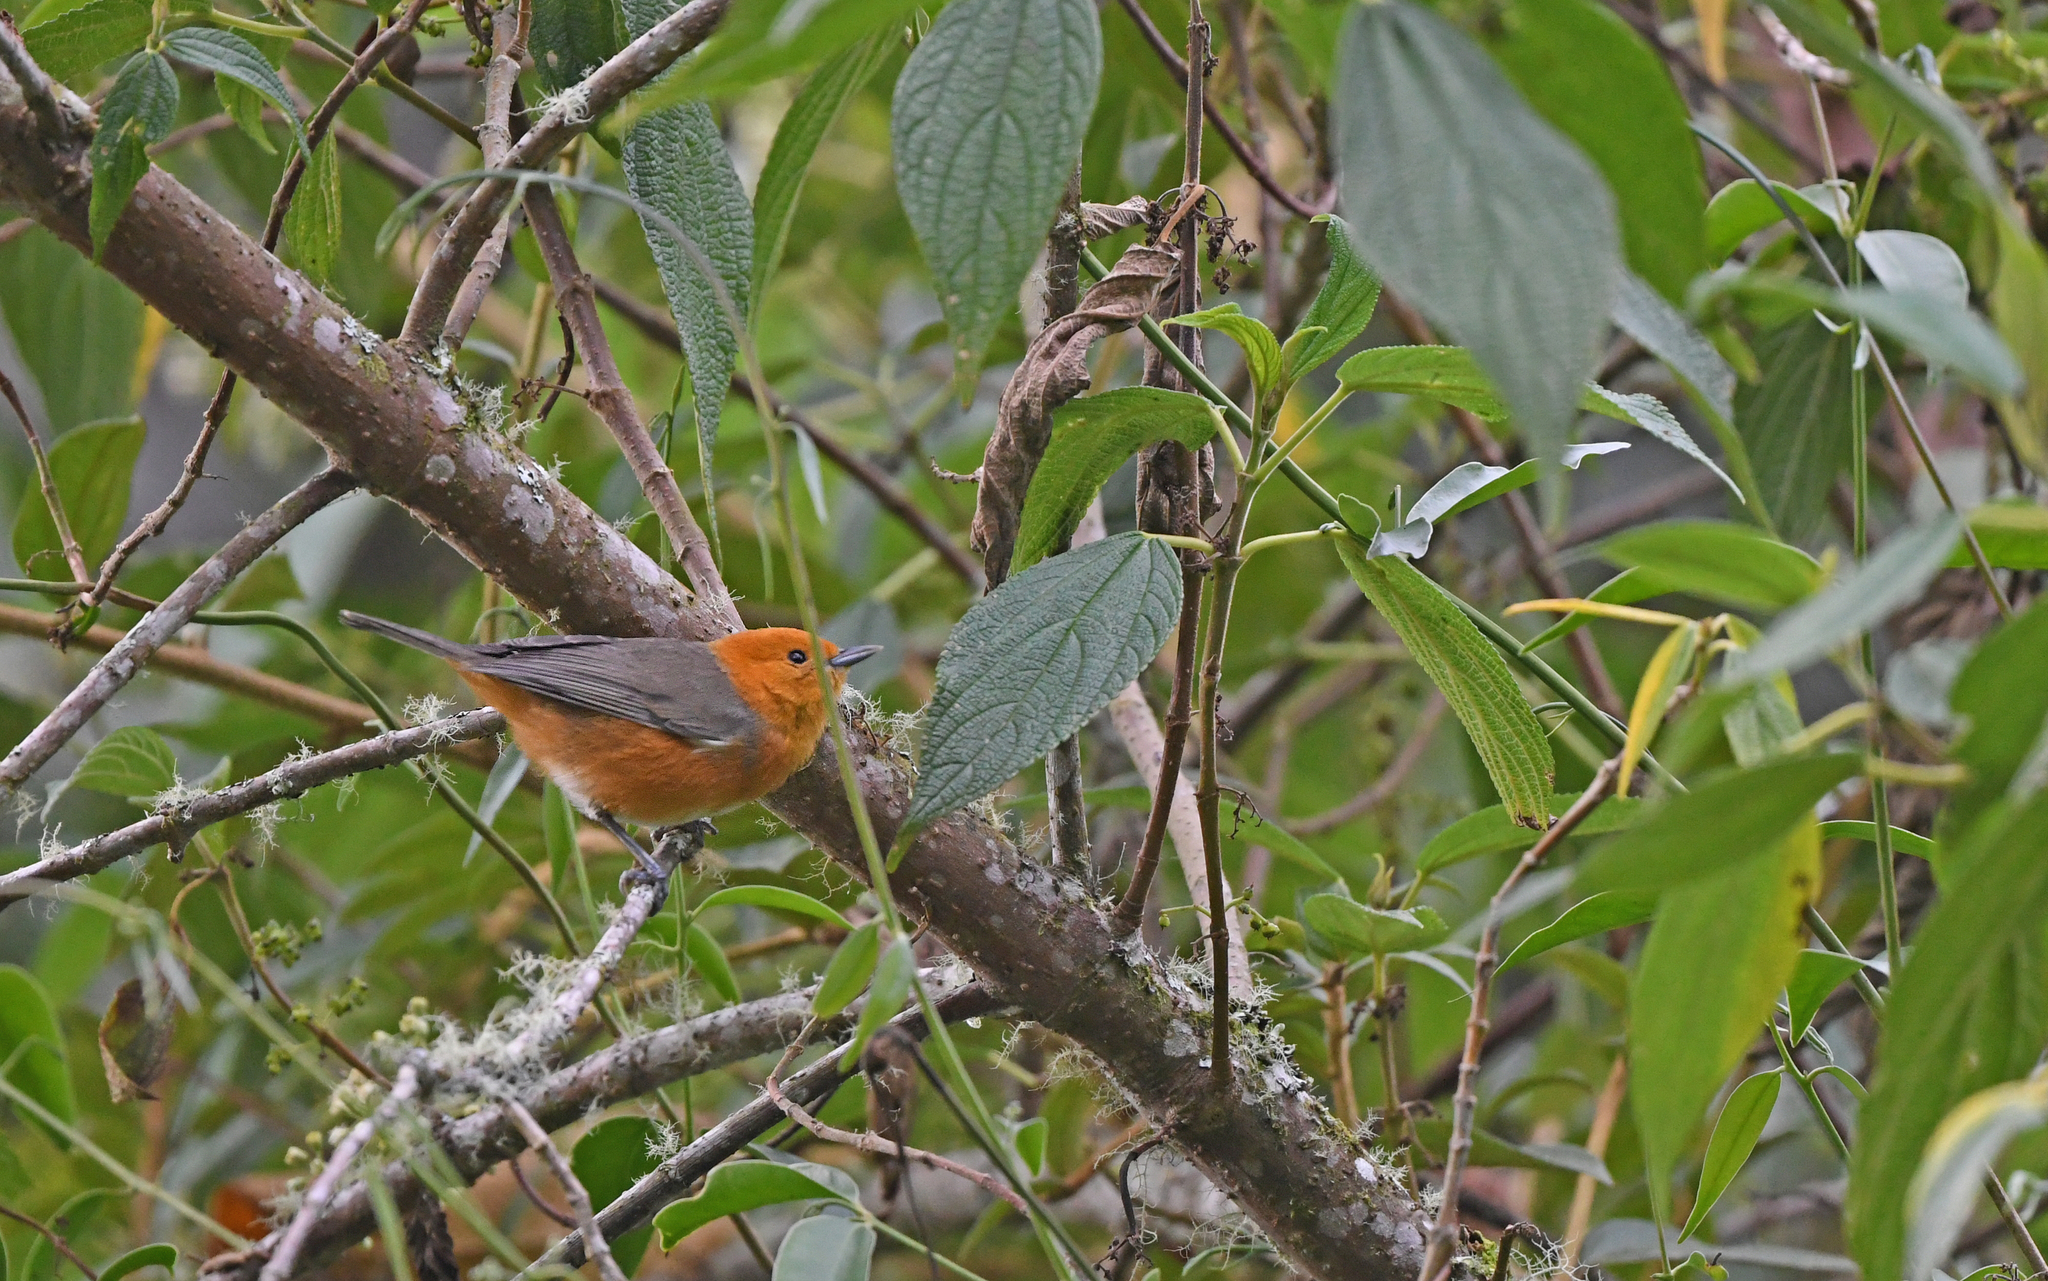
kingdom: Animalia
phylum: Chordata
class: Aves
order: Passeriformes
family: Thraupidae
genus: Thlypopsis
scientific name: Thlypopsis ornata
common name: Rufous-chested tanager
